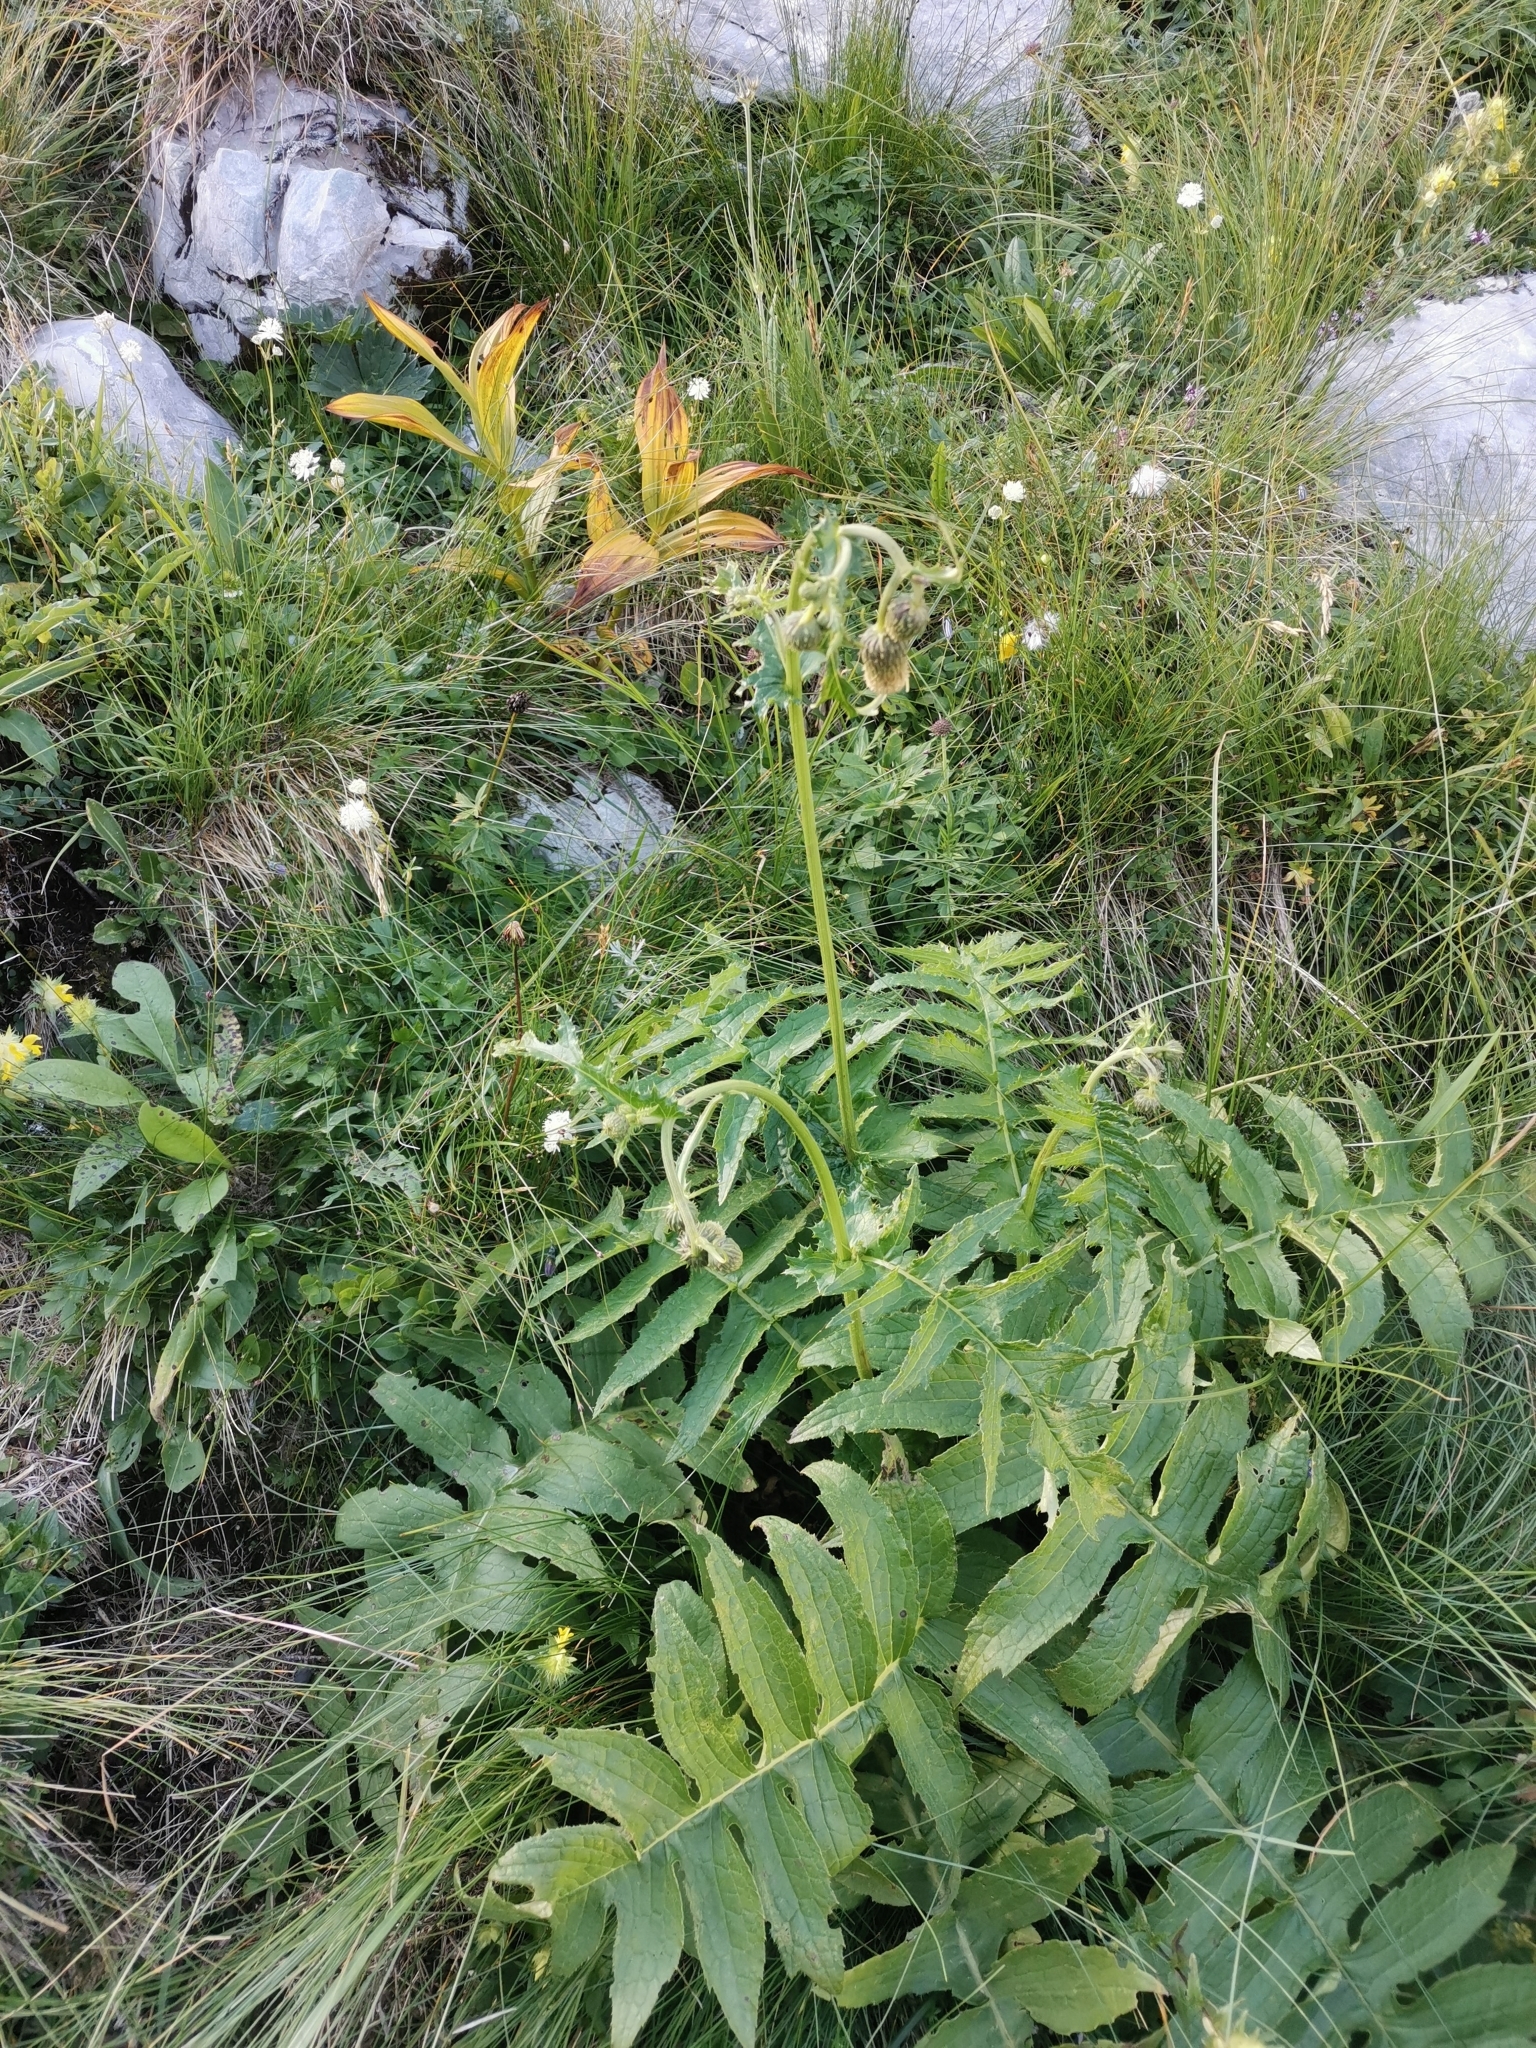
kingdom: Plantae
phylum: Tracheophyta
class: Magnoliopsida
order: Asterales
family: Asteraceae
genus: Cirsium
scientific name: Cirsium erisithales
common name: Yellow thistle
